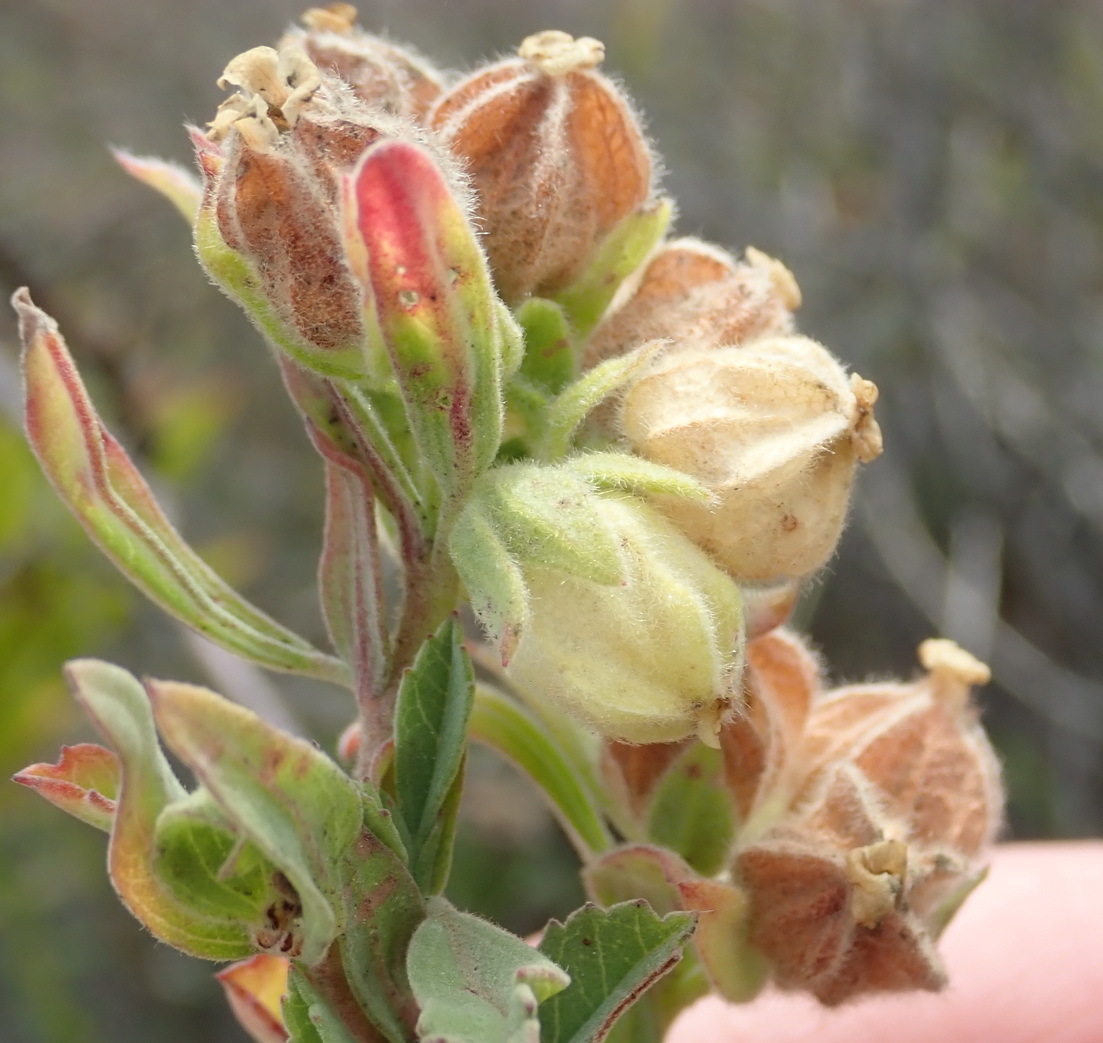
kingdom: Plantae
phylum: Tracheophyta
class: Magnoliopsida
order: Malvales
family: Malvaceae
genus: Hermannia
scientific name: Hermannia hyssopifolia
